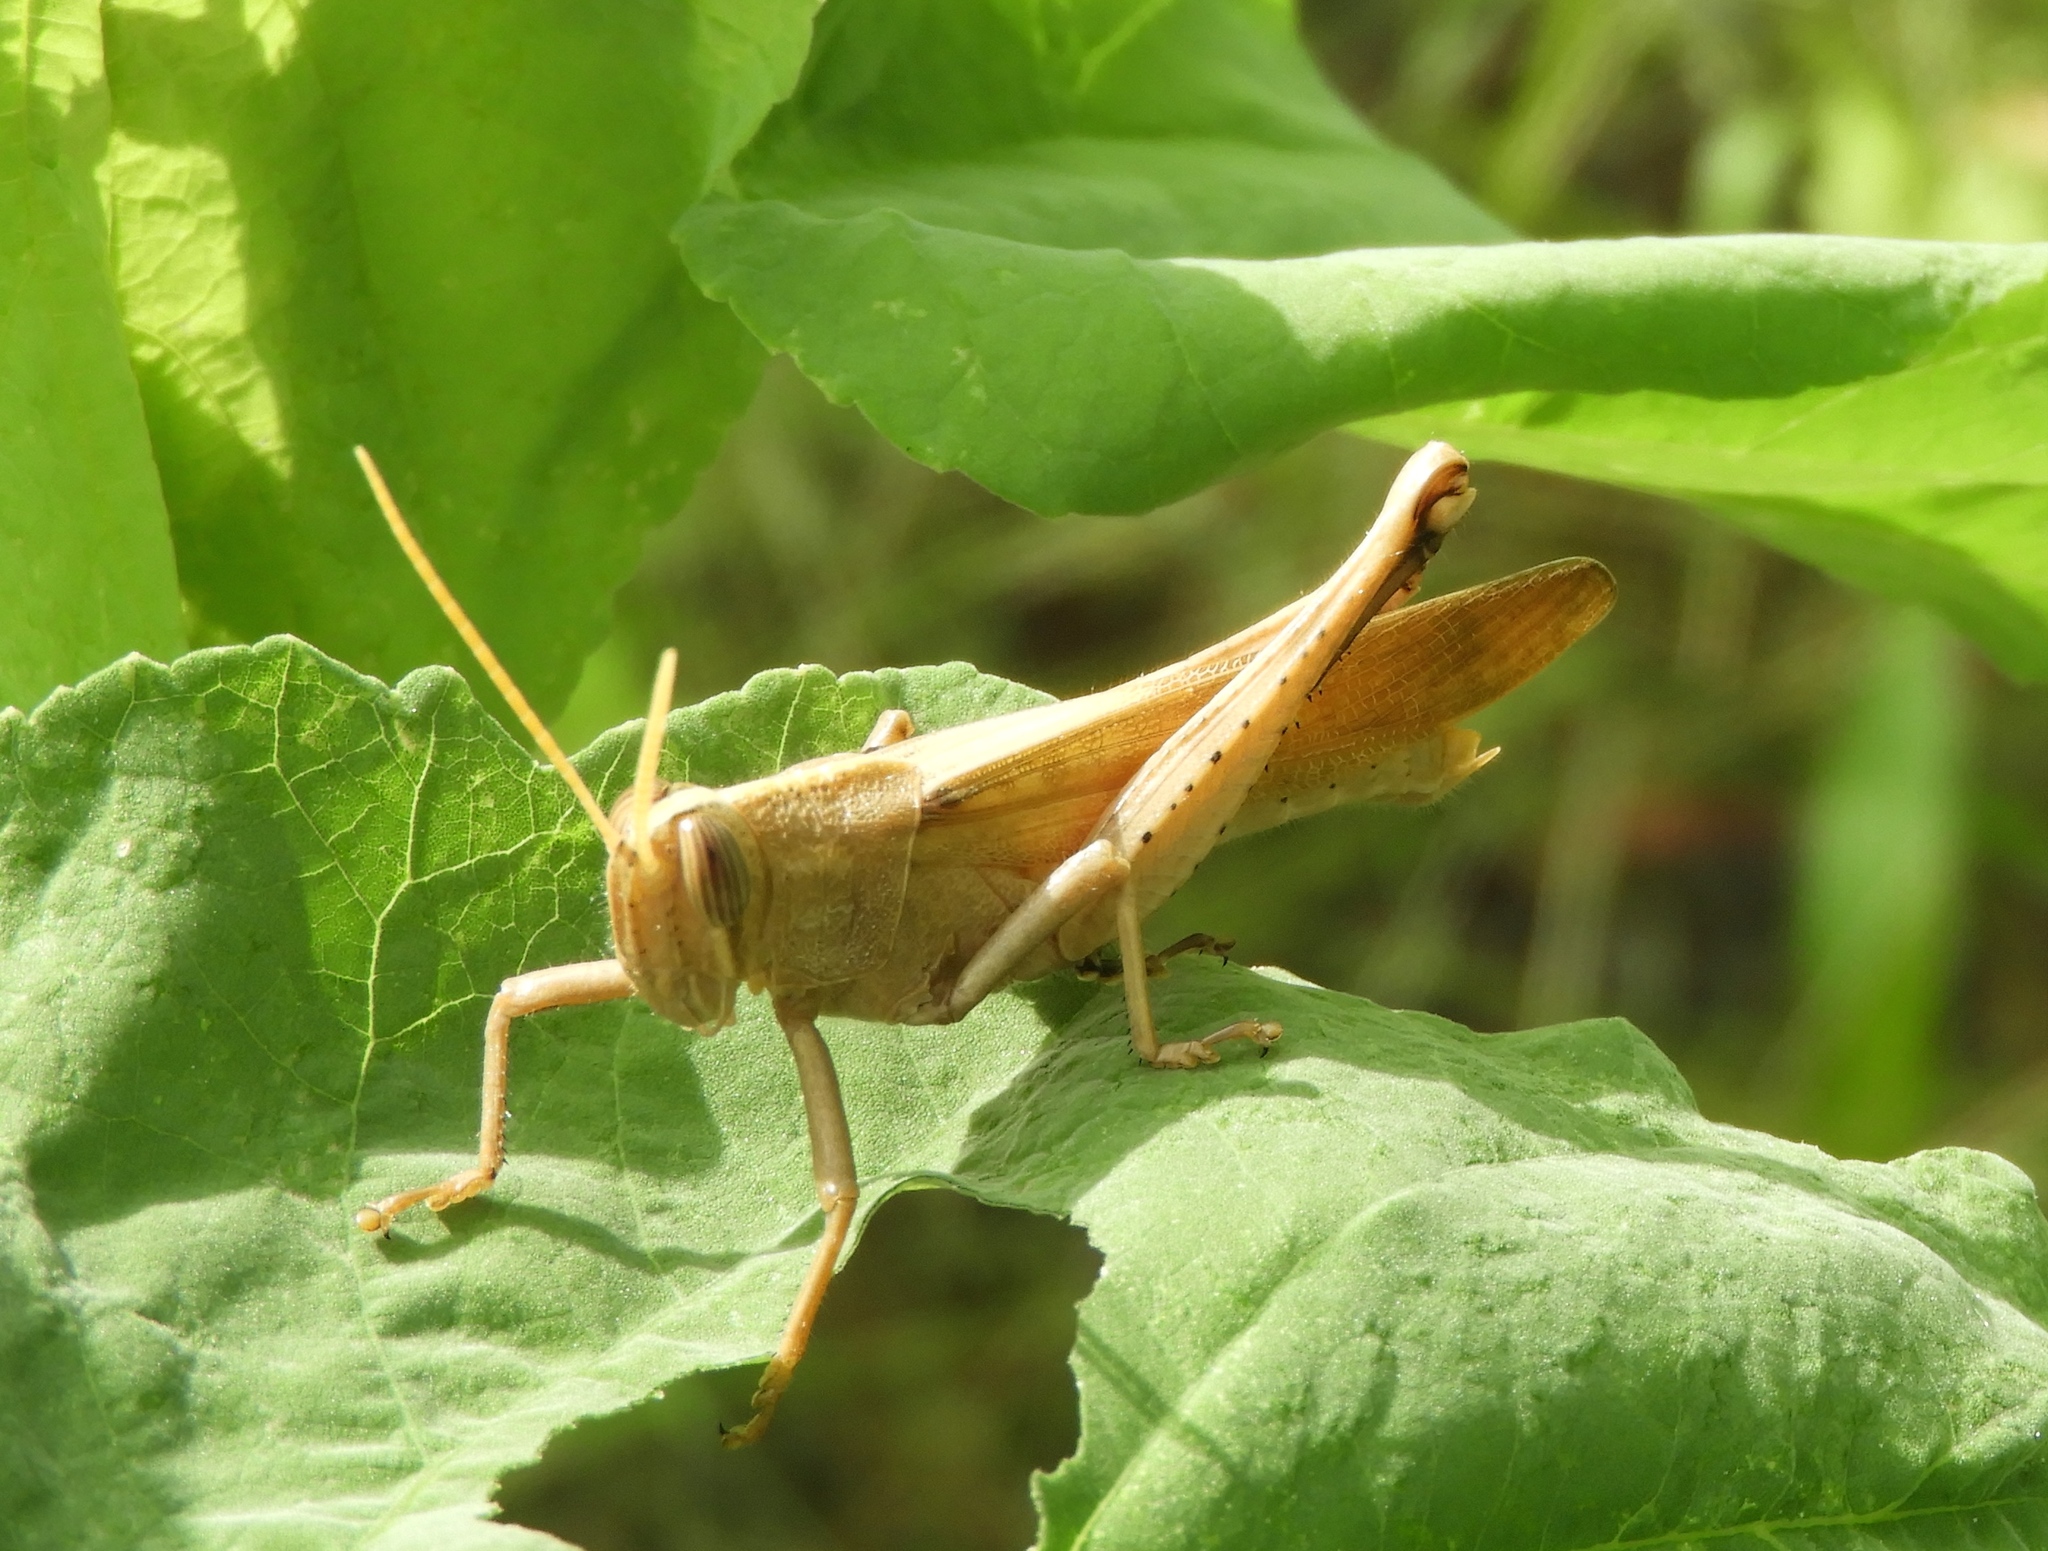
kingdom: Animalia
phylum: Arthropoda
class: Insecta
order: Orthoptera
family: Acrididae
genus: Schistocerca
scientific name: Schistocerca
